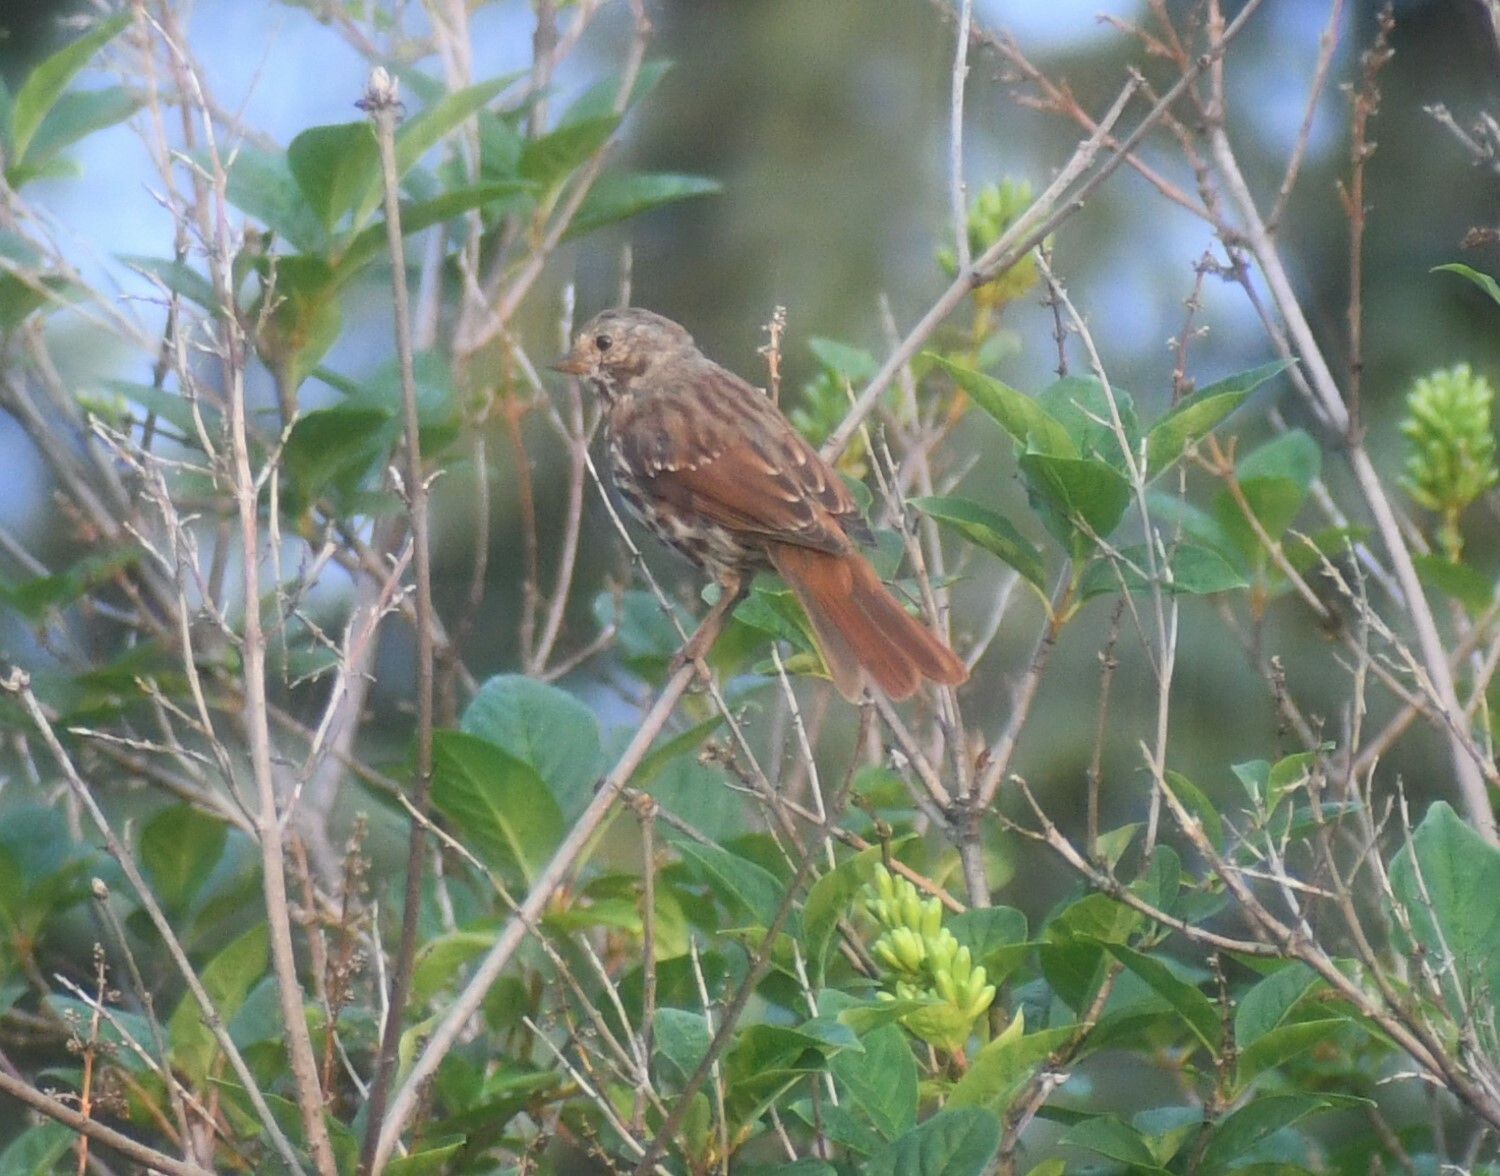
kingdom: Animalia
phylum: Chordata
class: Aves
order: Passeriformes
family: Passerellidae
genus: Passerella
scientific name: Passerella iliaca
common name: Fox sparrow
